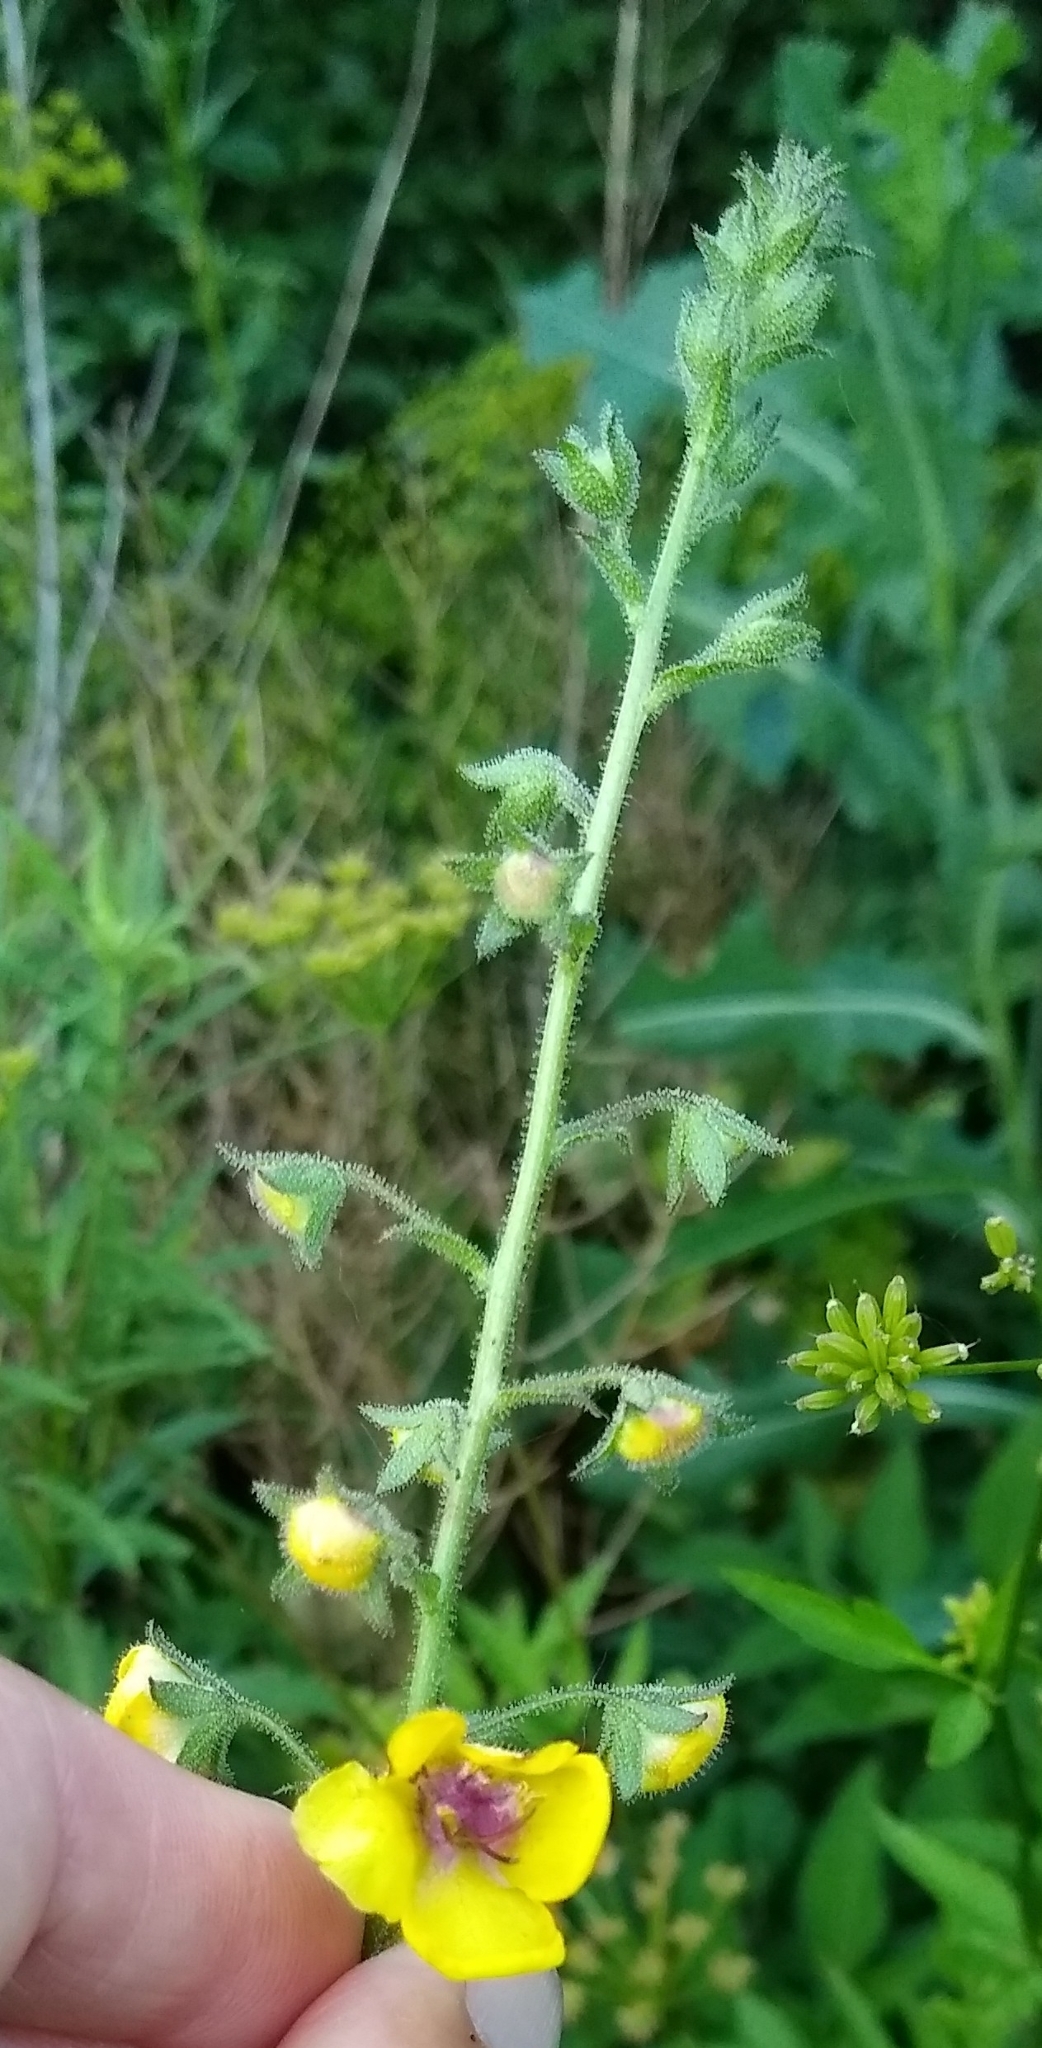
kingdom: Plantae
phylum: Tracheophyta
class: Magnoliopsida
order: Lamiales
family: Scrophulariaceae
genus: Verbascum
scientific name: Verbascum blattaria
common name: Moth mullein
